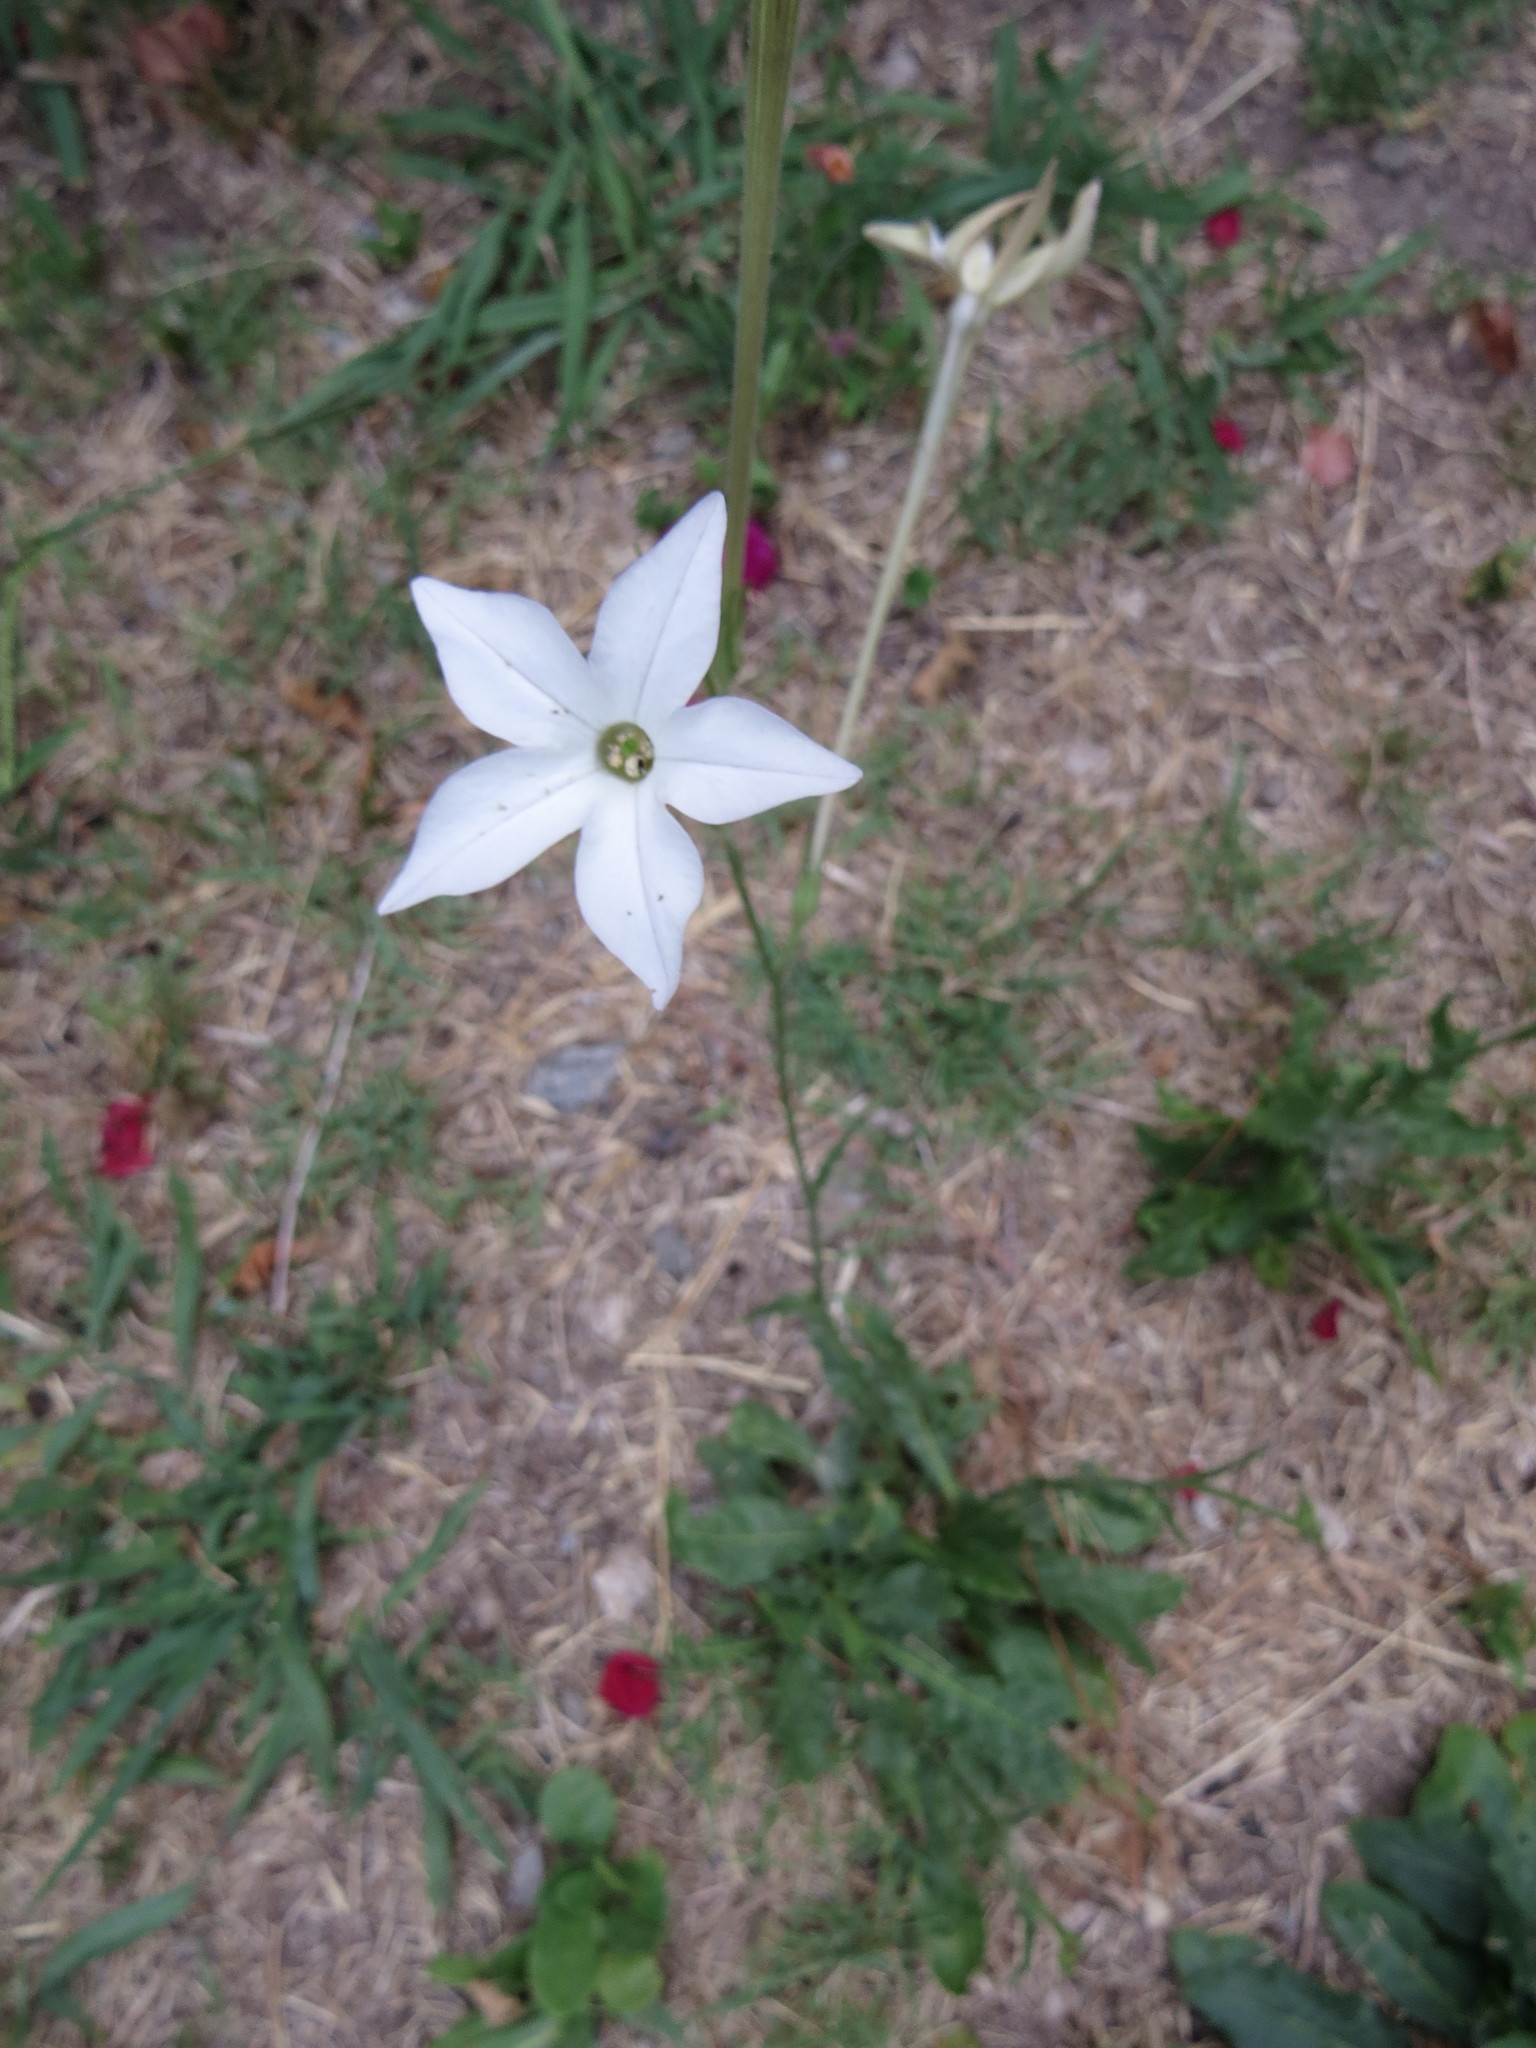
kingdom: Plantae
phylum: Tracheophyta
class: Magnoliopsida
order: Solanales
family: Solanaceae
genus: Nicotiana
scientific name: Nicotiana longiflora
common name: Long-flowered tobacco
